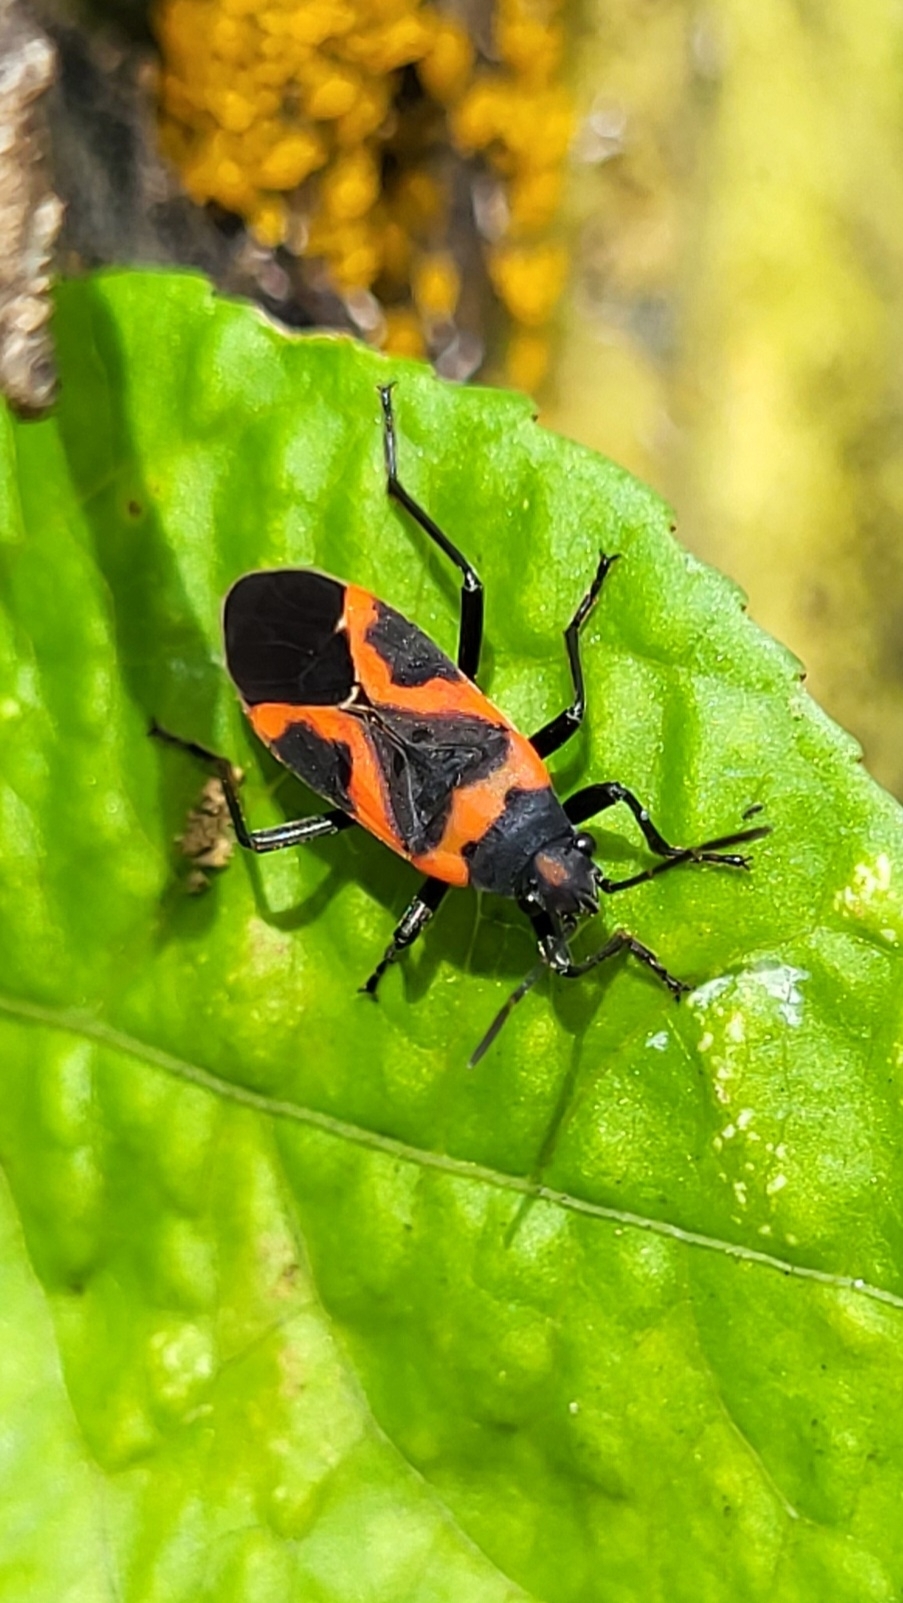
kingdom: Animalia
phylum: Arthropoda
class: Insecta
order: Hemiptera
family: Lygaeidae
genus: Lygaeus
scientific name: Lygaeus kalmii
